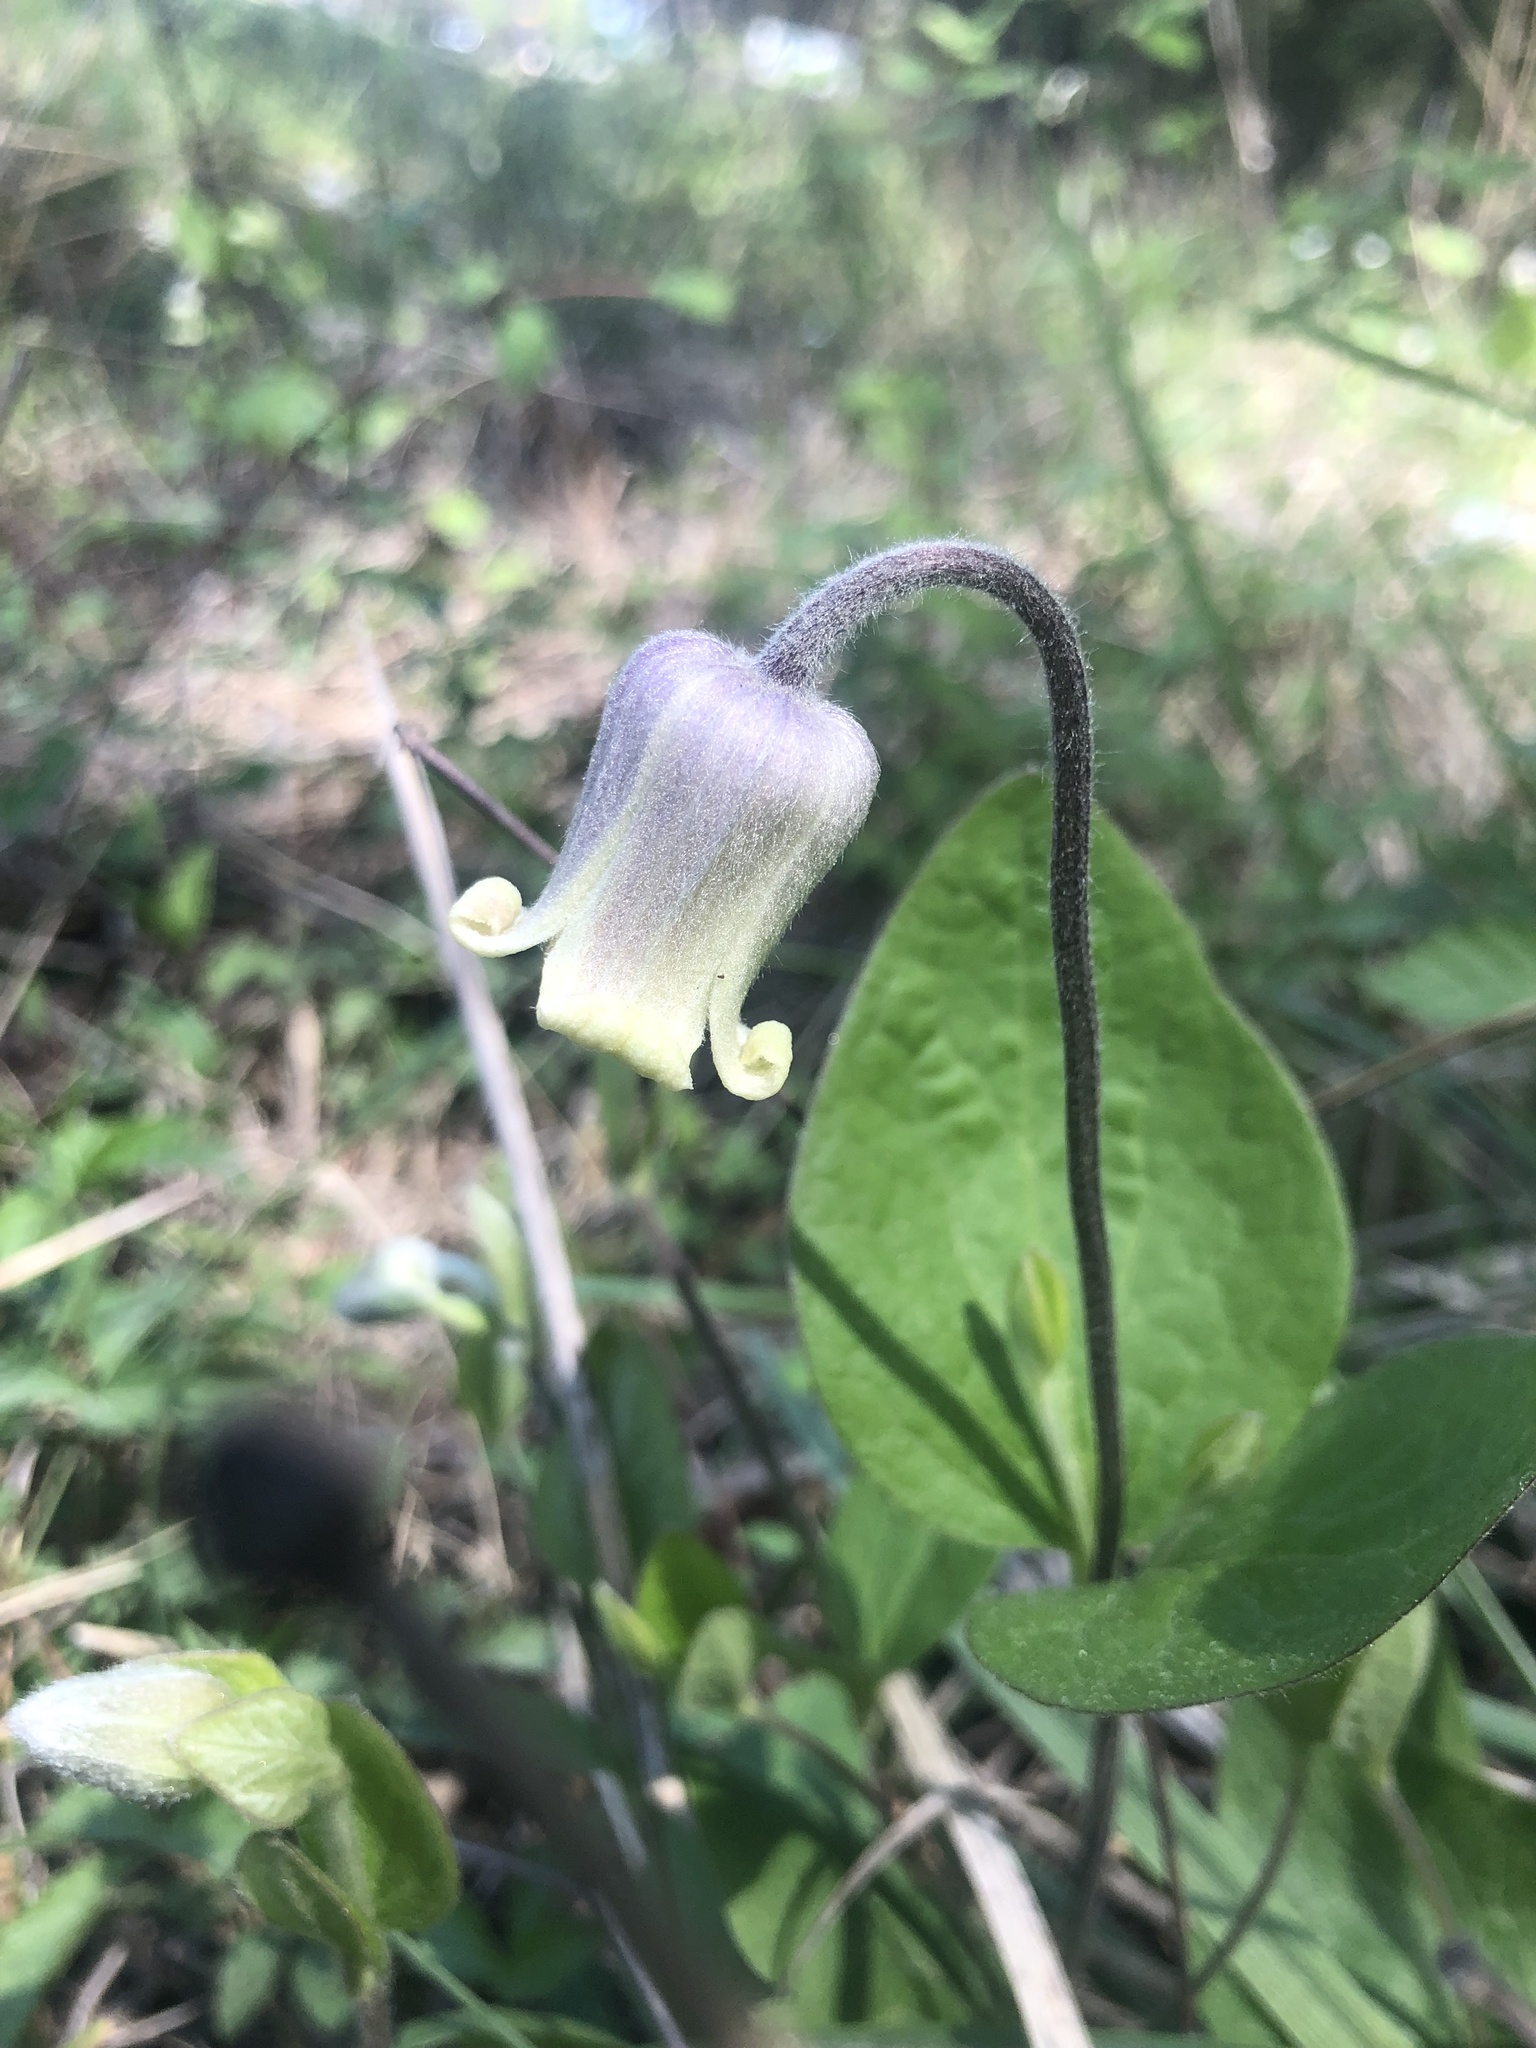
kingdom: Plantae
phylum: Tracheophyta
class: Magnoliopsida
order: Ranunculales
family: Ranunculaceae
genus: Clematis
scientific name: Clematis ochroleuca
